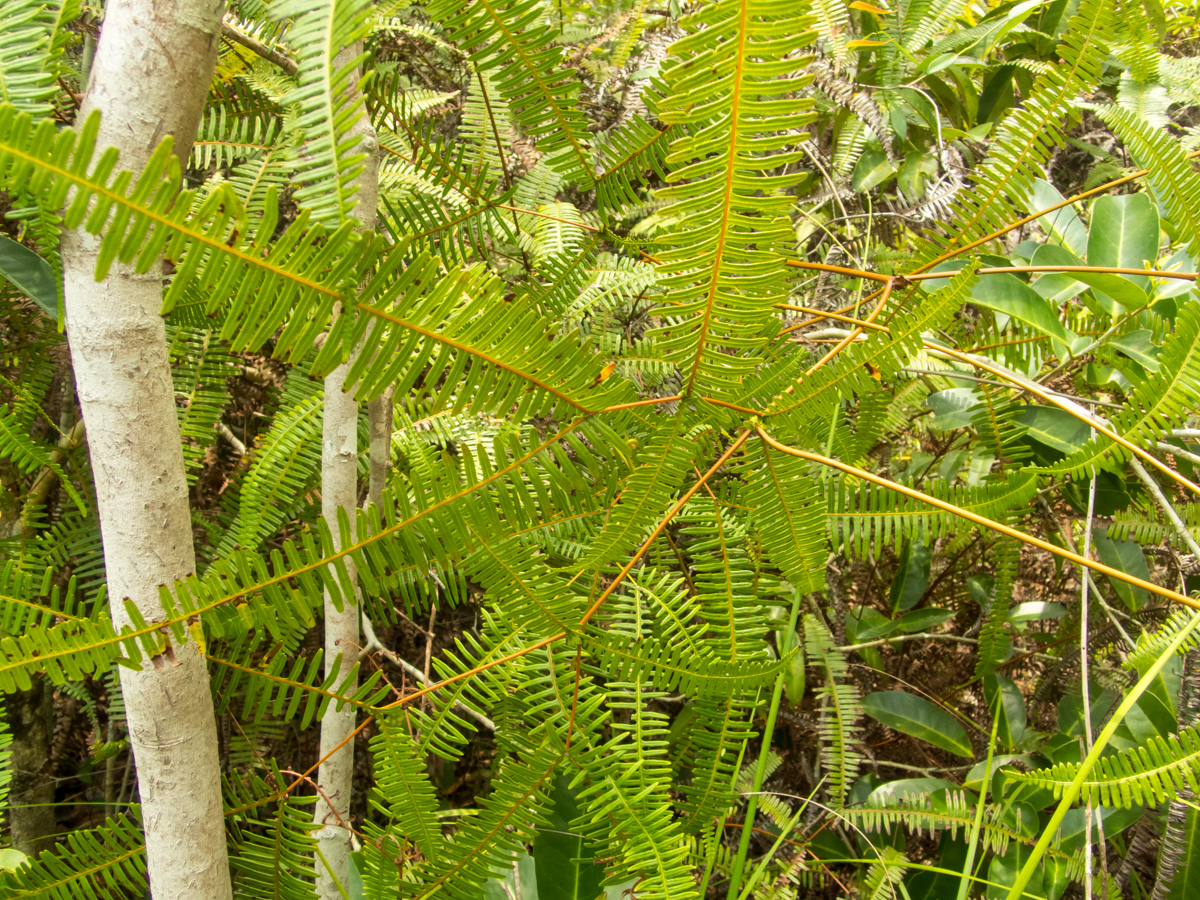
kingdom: Plantae
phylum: Tracheophyta
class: Polypodiopsida
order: Gleicheniales
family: Gleicheniaceae
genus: Dicranopteris
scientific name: Dicranopteris linearis
